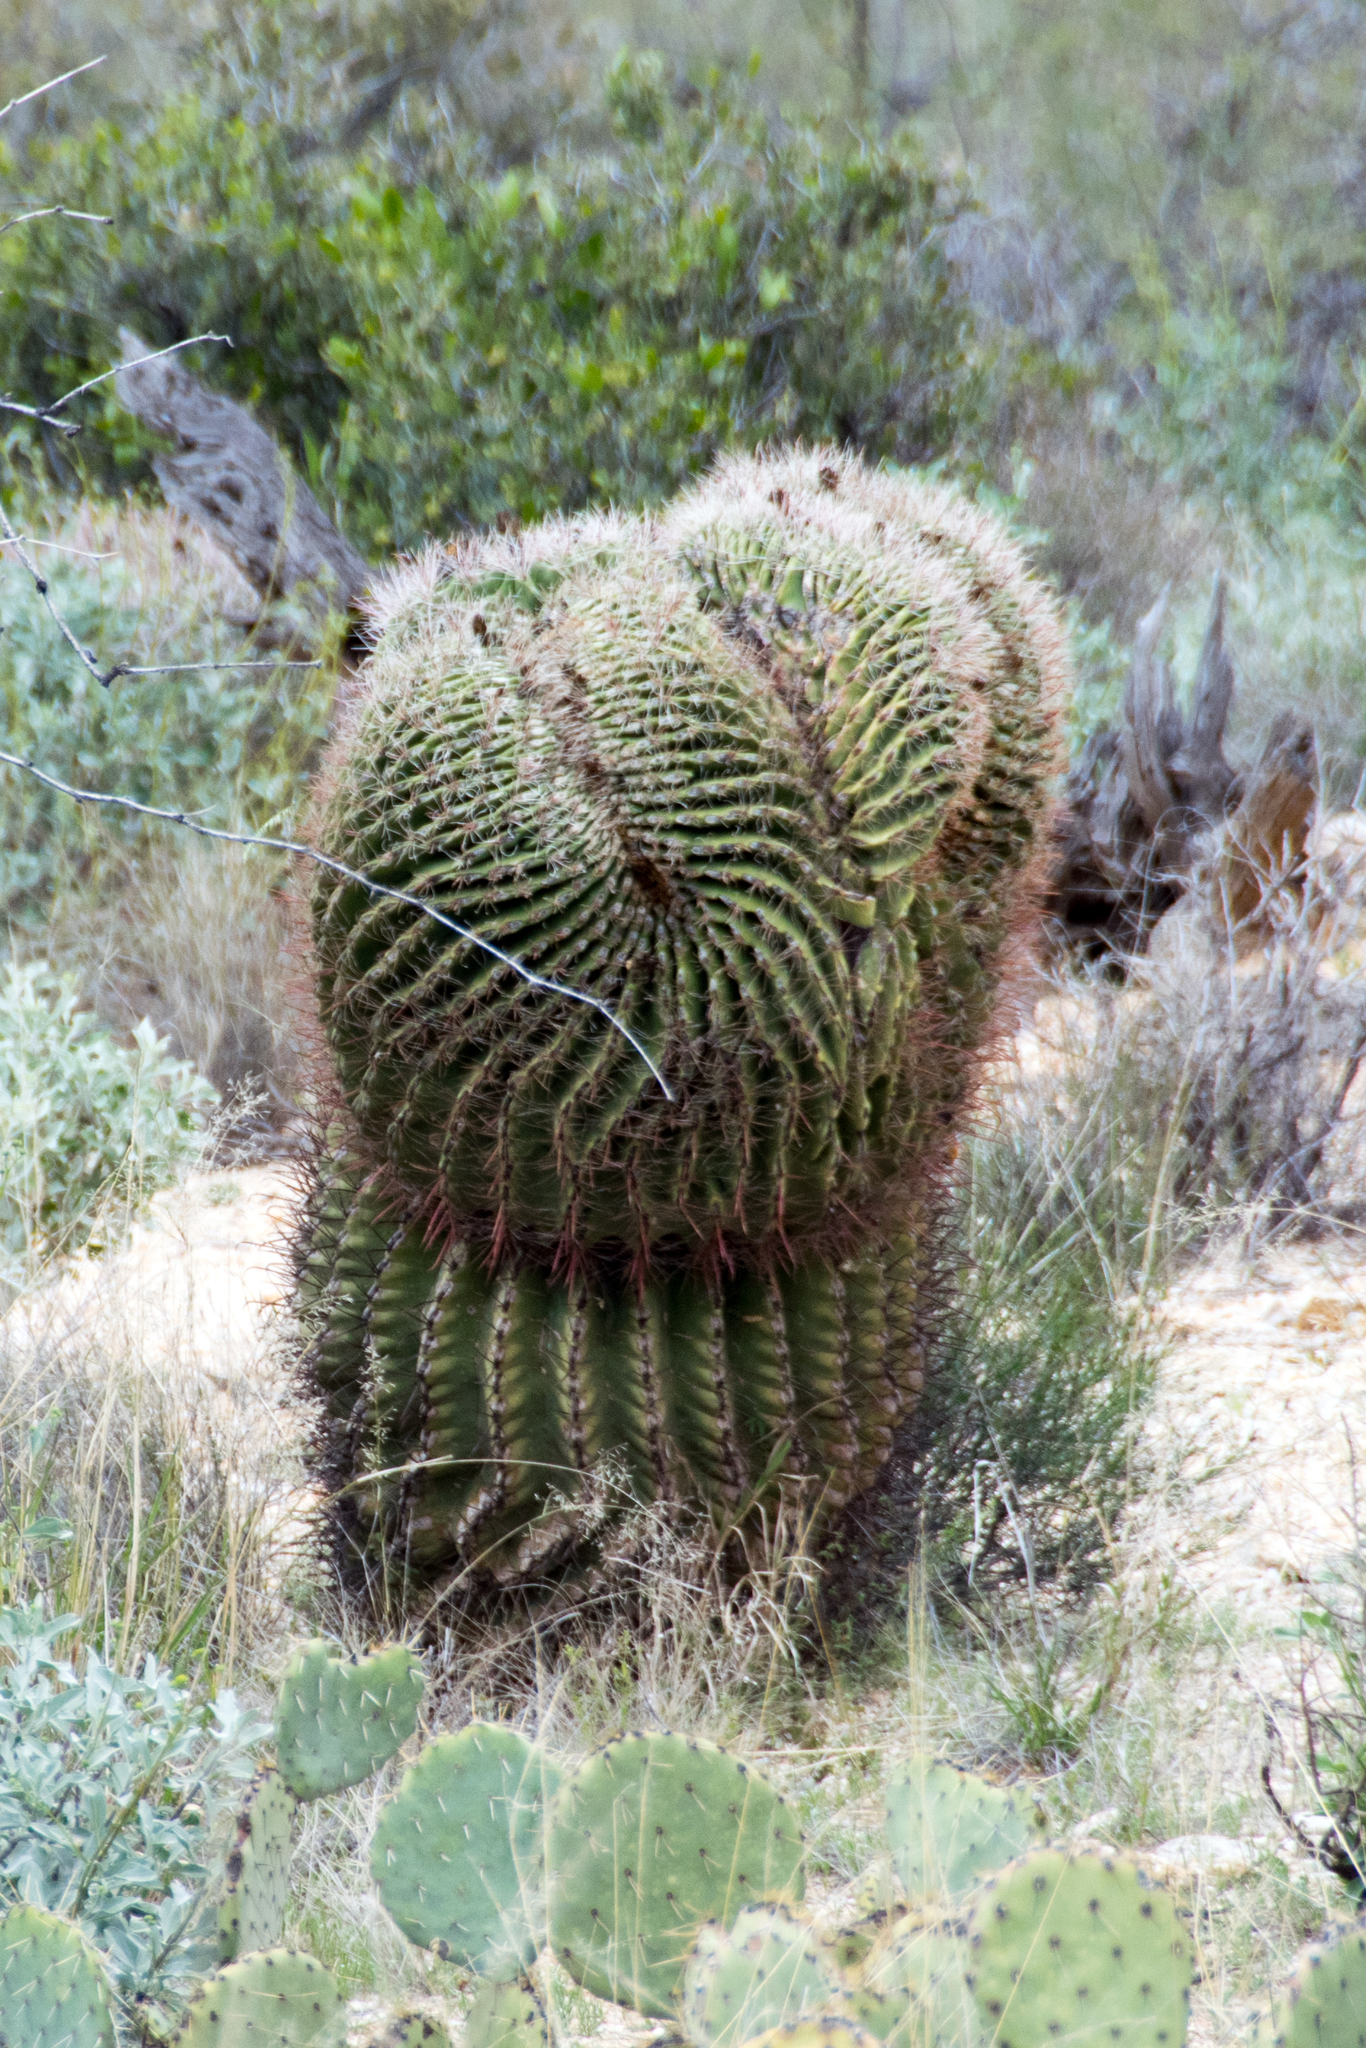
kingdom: Plantae
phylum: Tracheophyta
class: Magnoliopsida
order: Caryophyllales
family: Cactaceae
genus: Ferocactus
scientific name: Ferocactus wislizeni
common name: Candy barrel cactus
